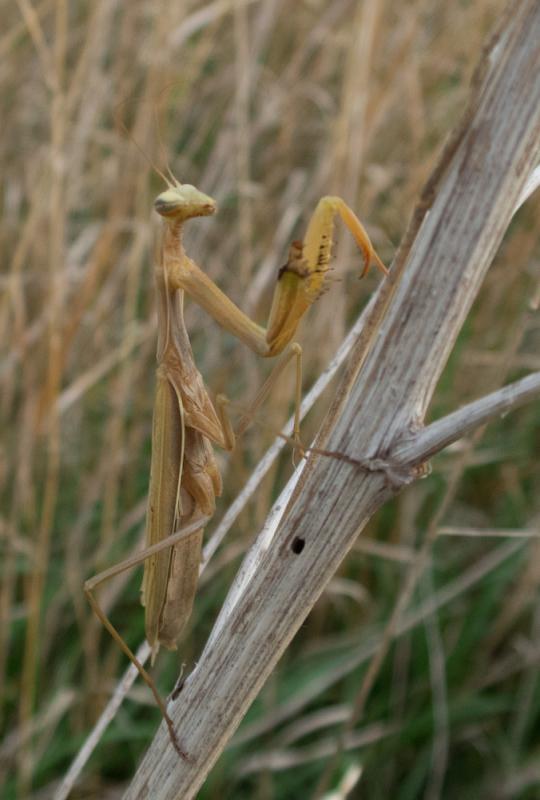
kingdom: Animalia
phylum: Arthropoda
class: Insecta
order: Mantodea
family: Mantidae
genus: Mantis
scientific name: Mantis religiosa
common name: Praying mantis
